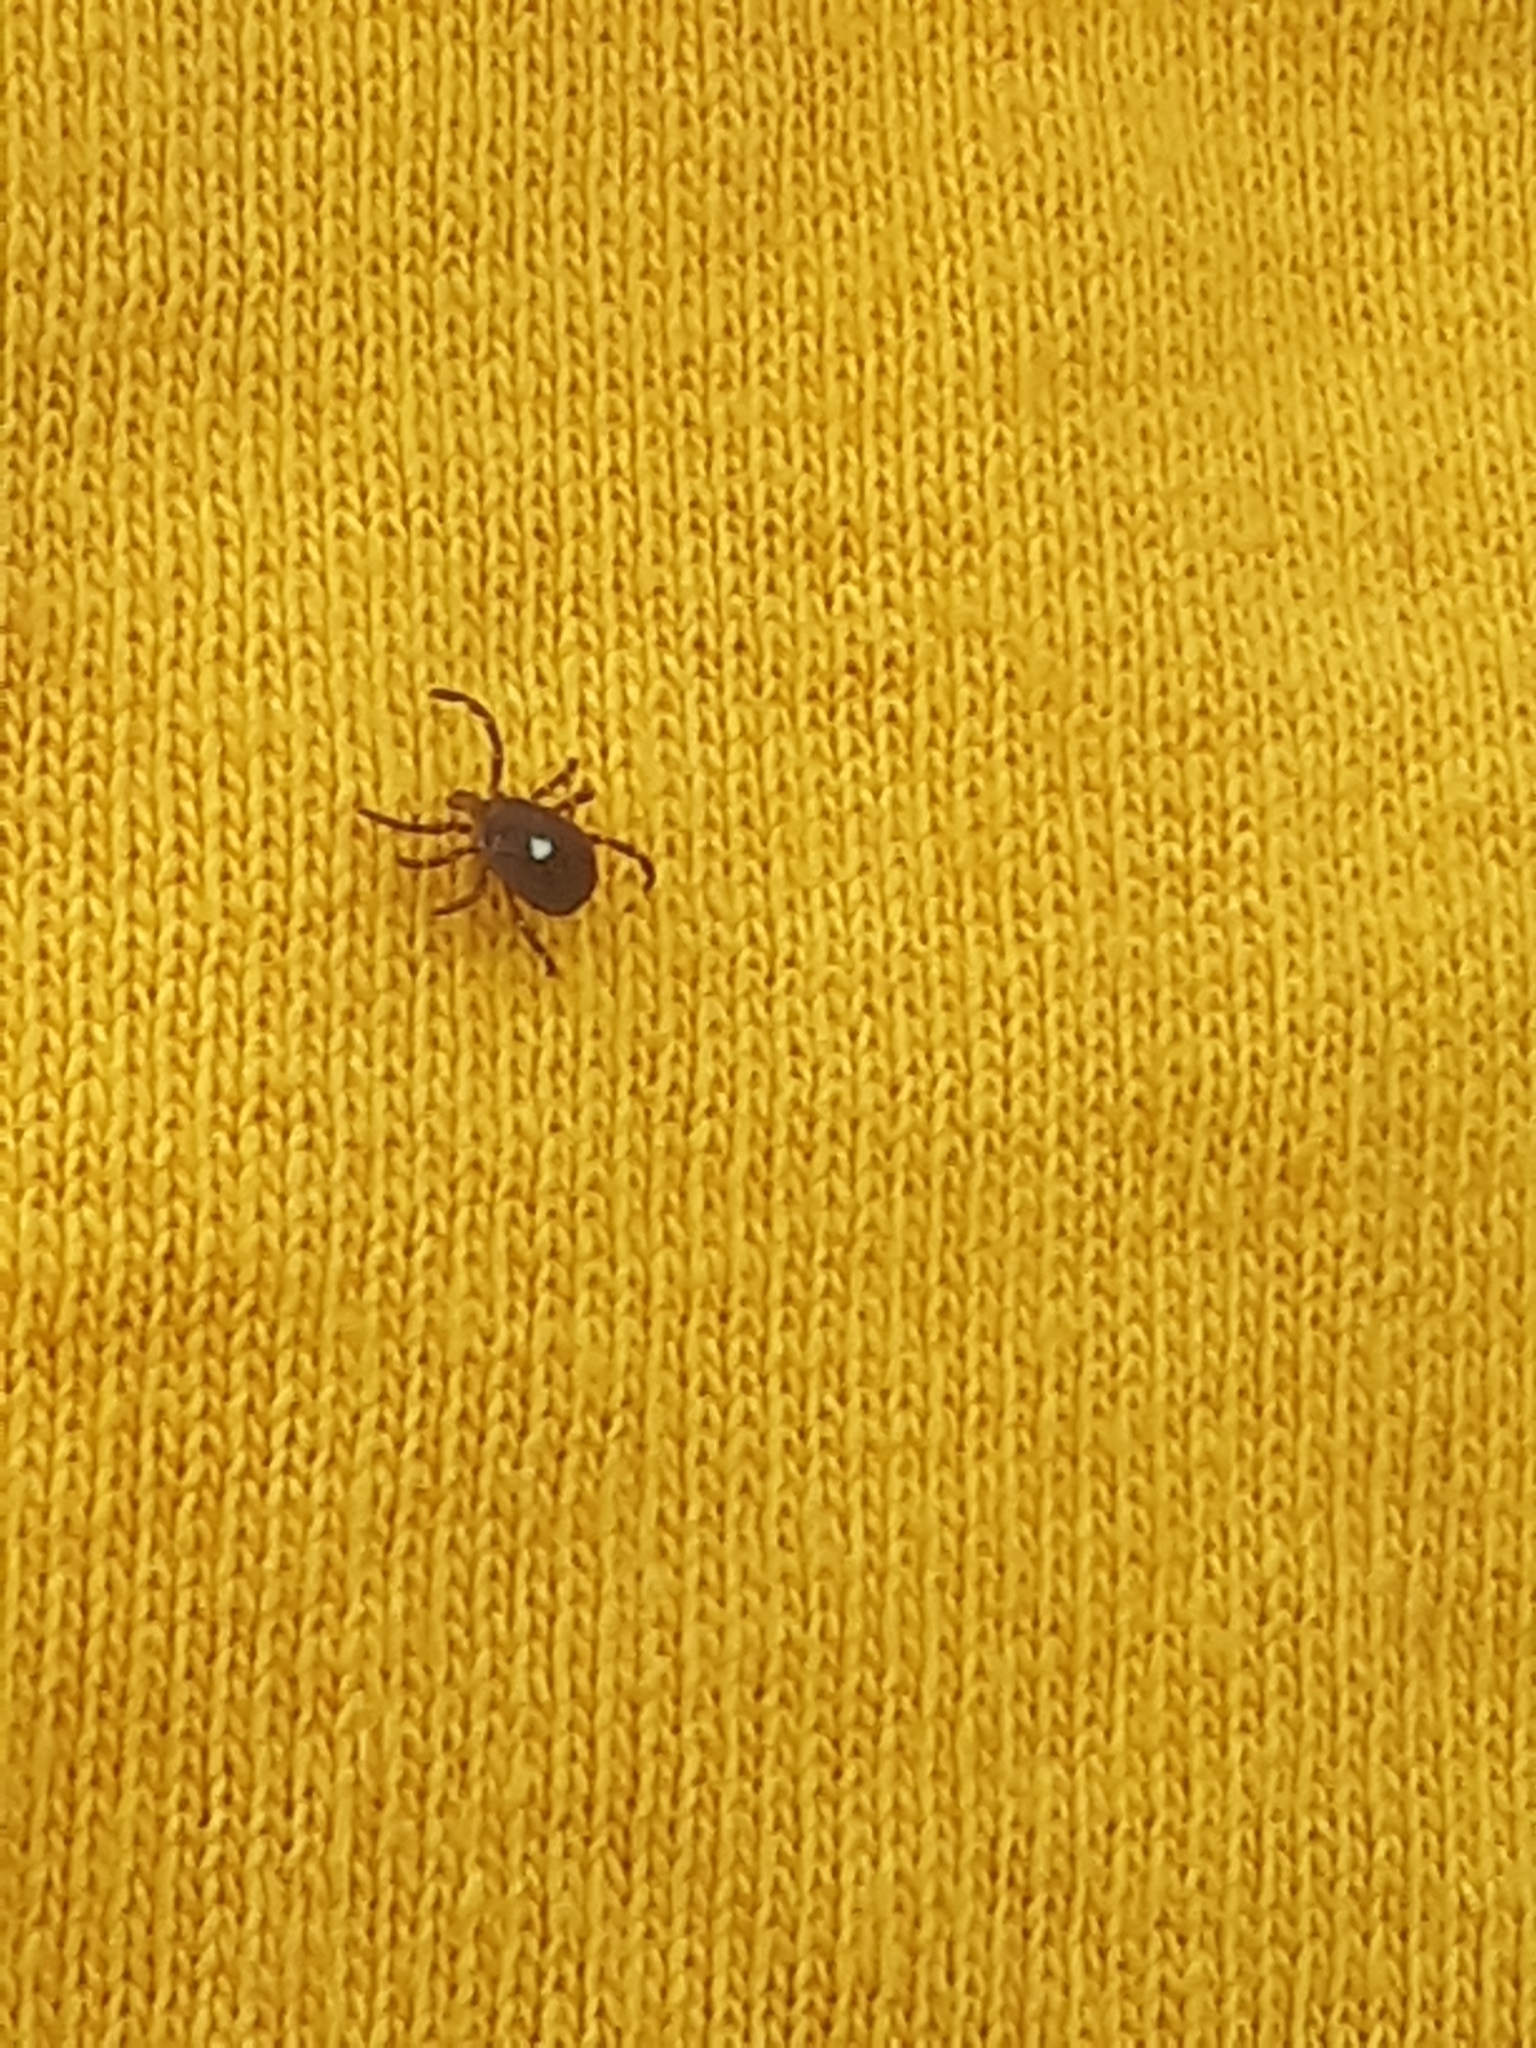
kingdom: Animalia
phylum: Arthropoda
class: Arachnida
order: Ixodida
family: Ixodidae
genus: Amblyomma
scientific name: Amblyomma americanum
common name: Lone star tick
